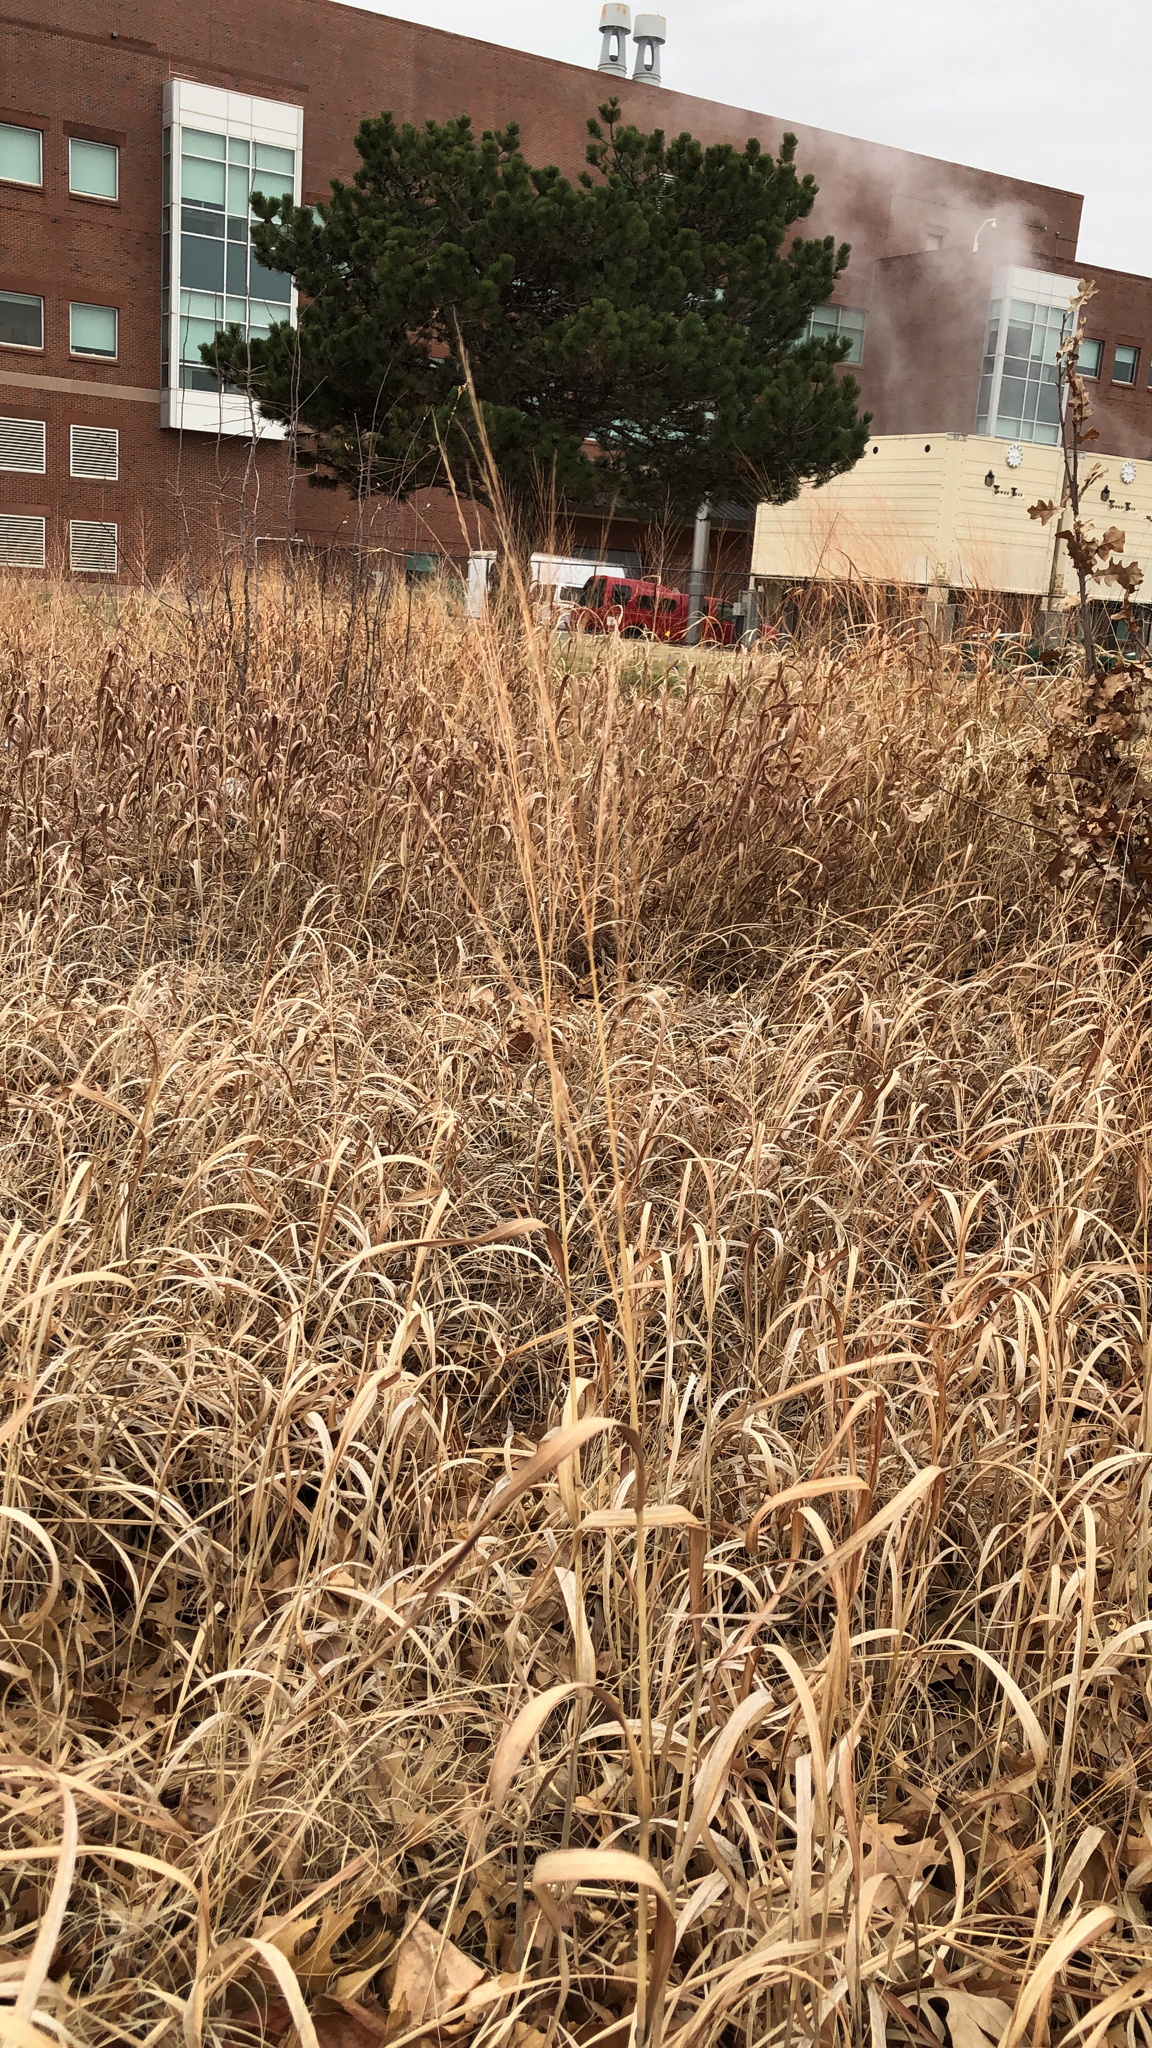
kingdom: Plantae
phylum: Tracheophyta
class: Liliopsida
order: Poales
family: Poaceae
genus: Panicum
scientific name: Panicum virgatum
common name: Switchgrass
